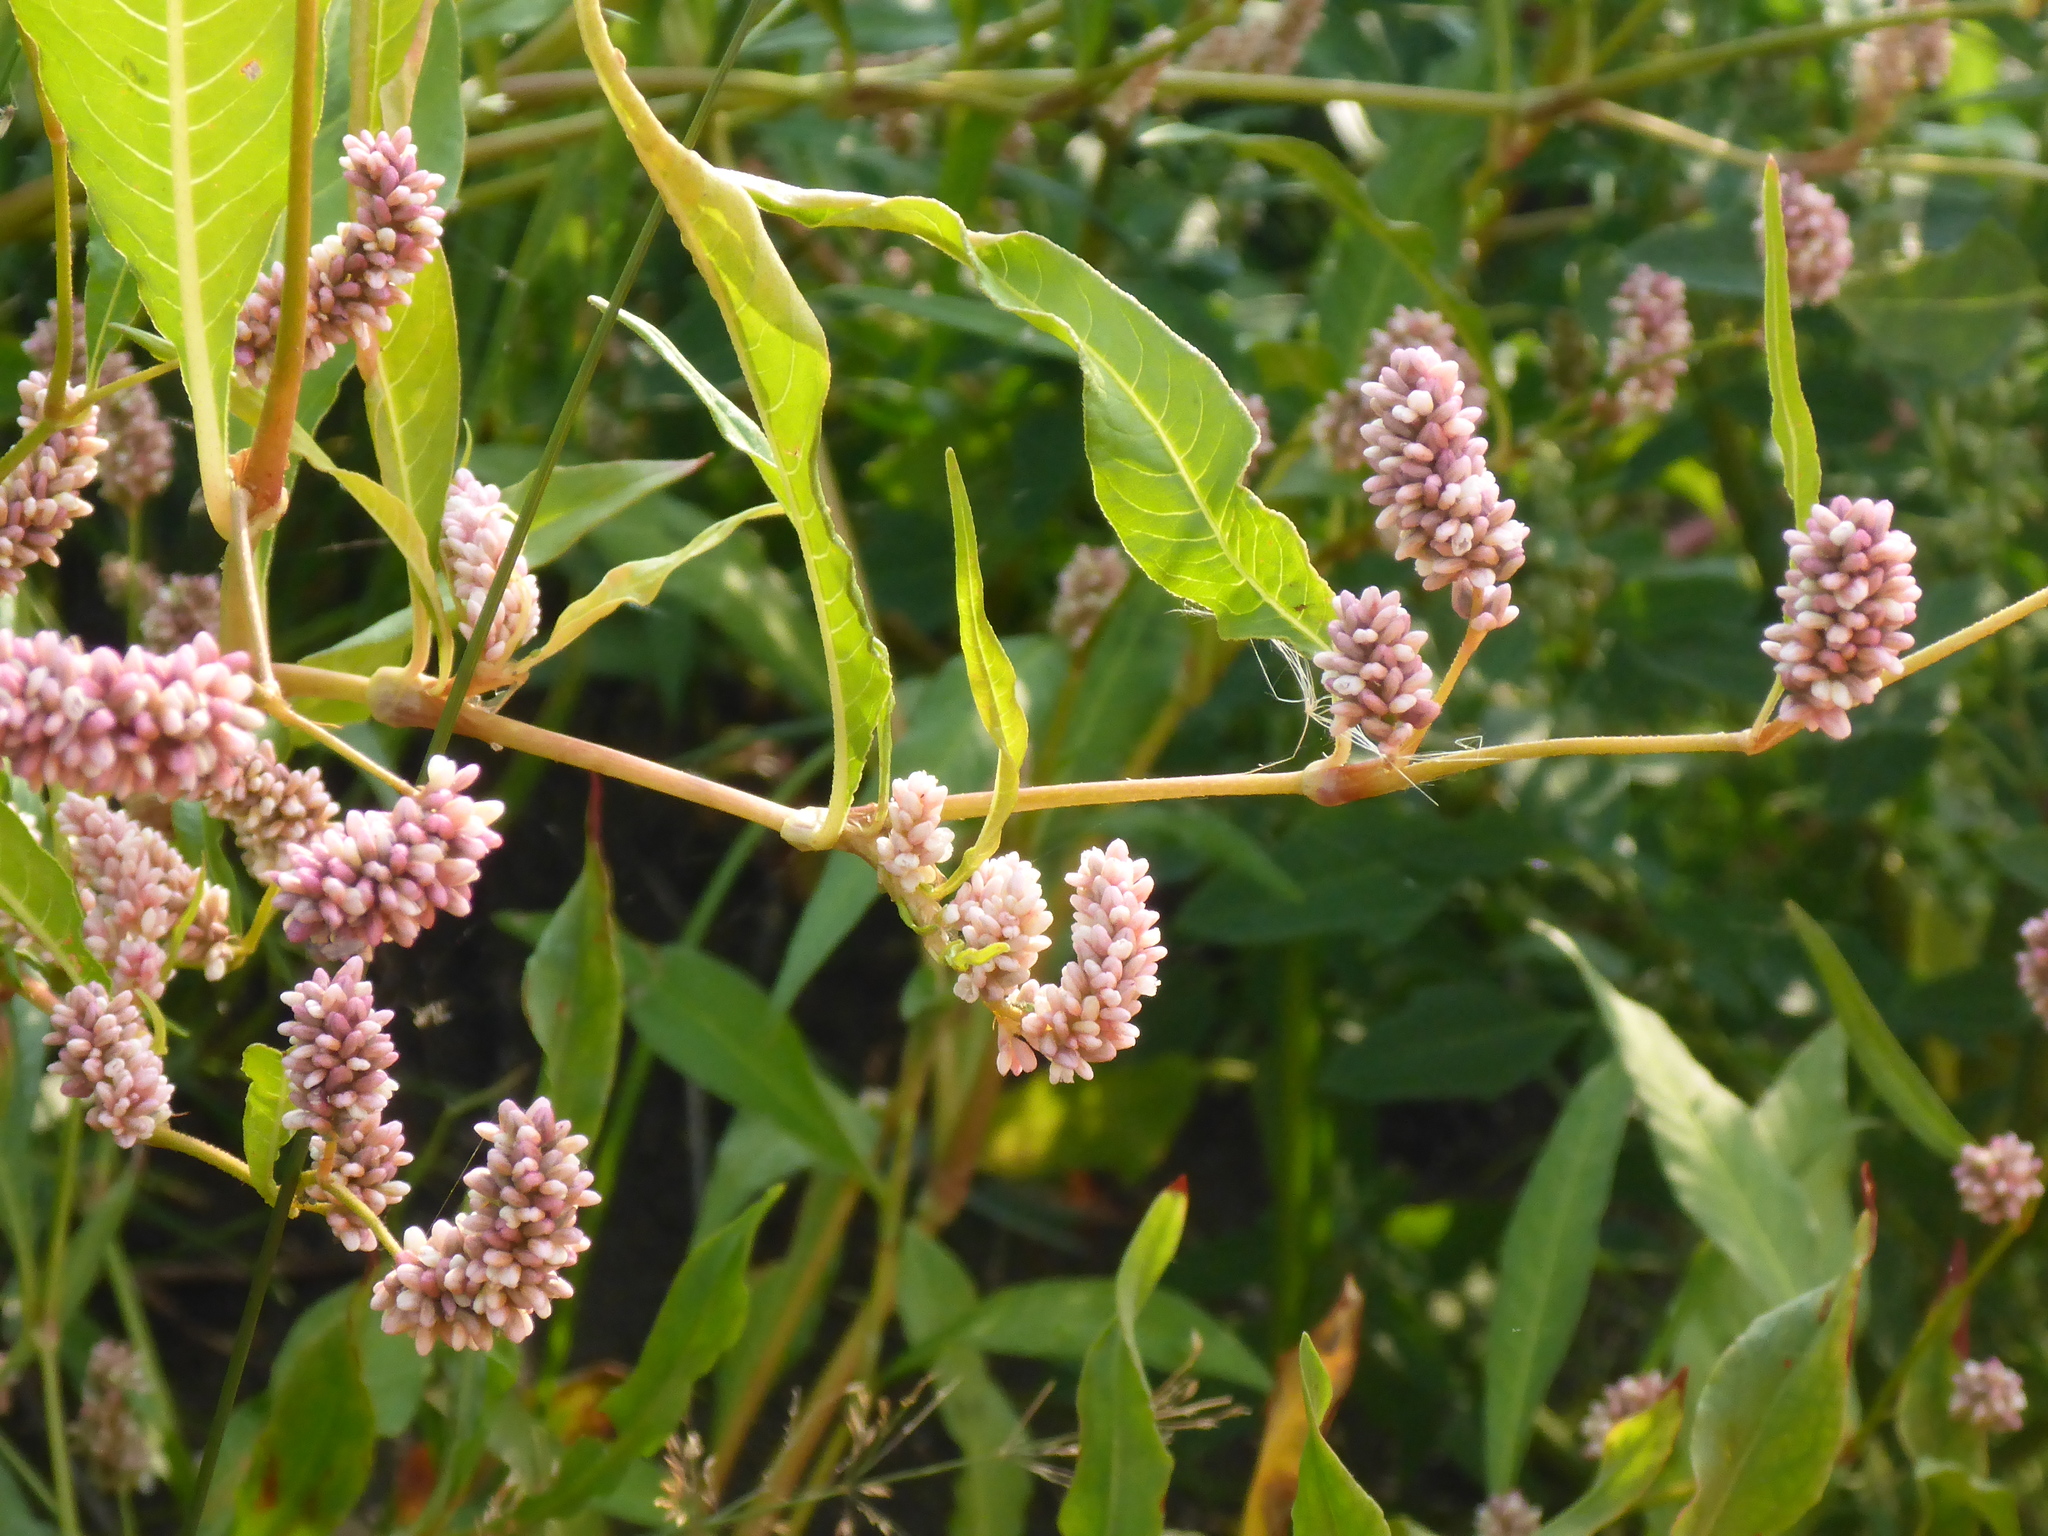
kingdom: Plantae
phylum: Tracheophyta
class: Magnoliopsida
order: Caryophyllales
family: Polygonaceae
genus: Persicaria
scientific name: Persicaria lapathifolia
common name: Curlytop knotweed
